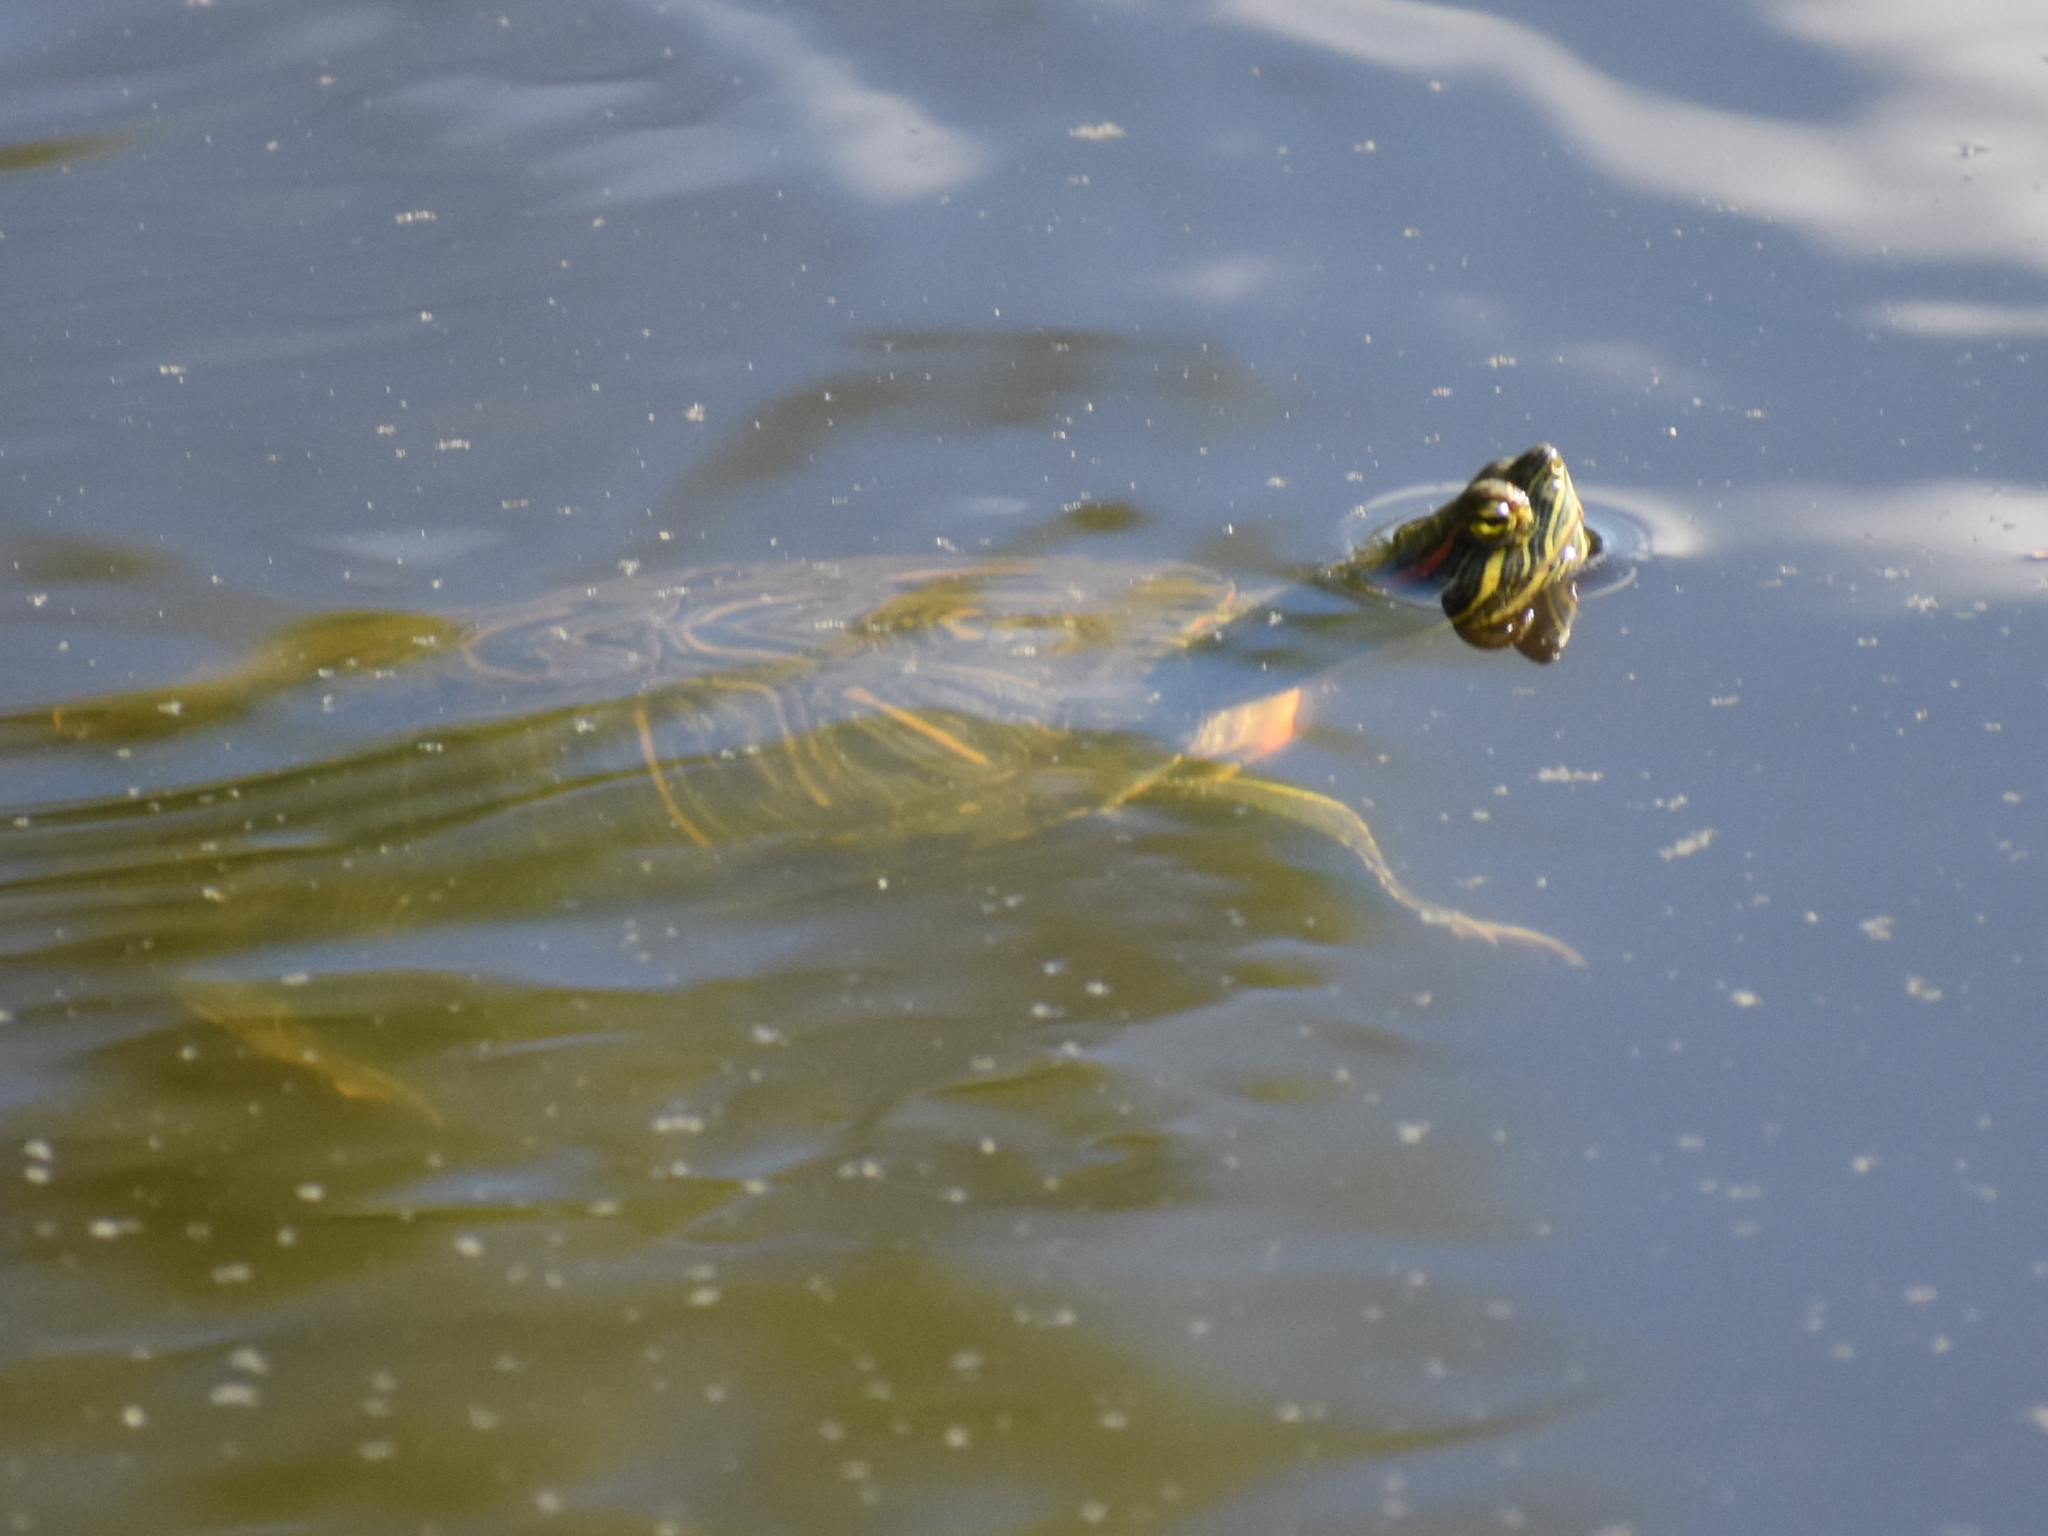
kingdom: Animalia
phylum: Chordata
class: Testudines
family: Emydidae
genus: Trachemys
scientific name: Trachemys scripta
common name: Slider
